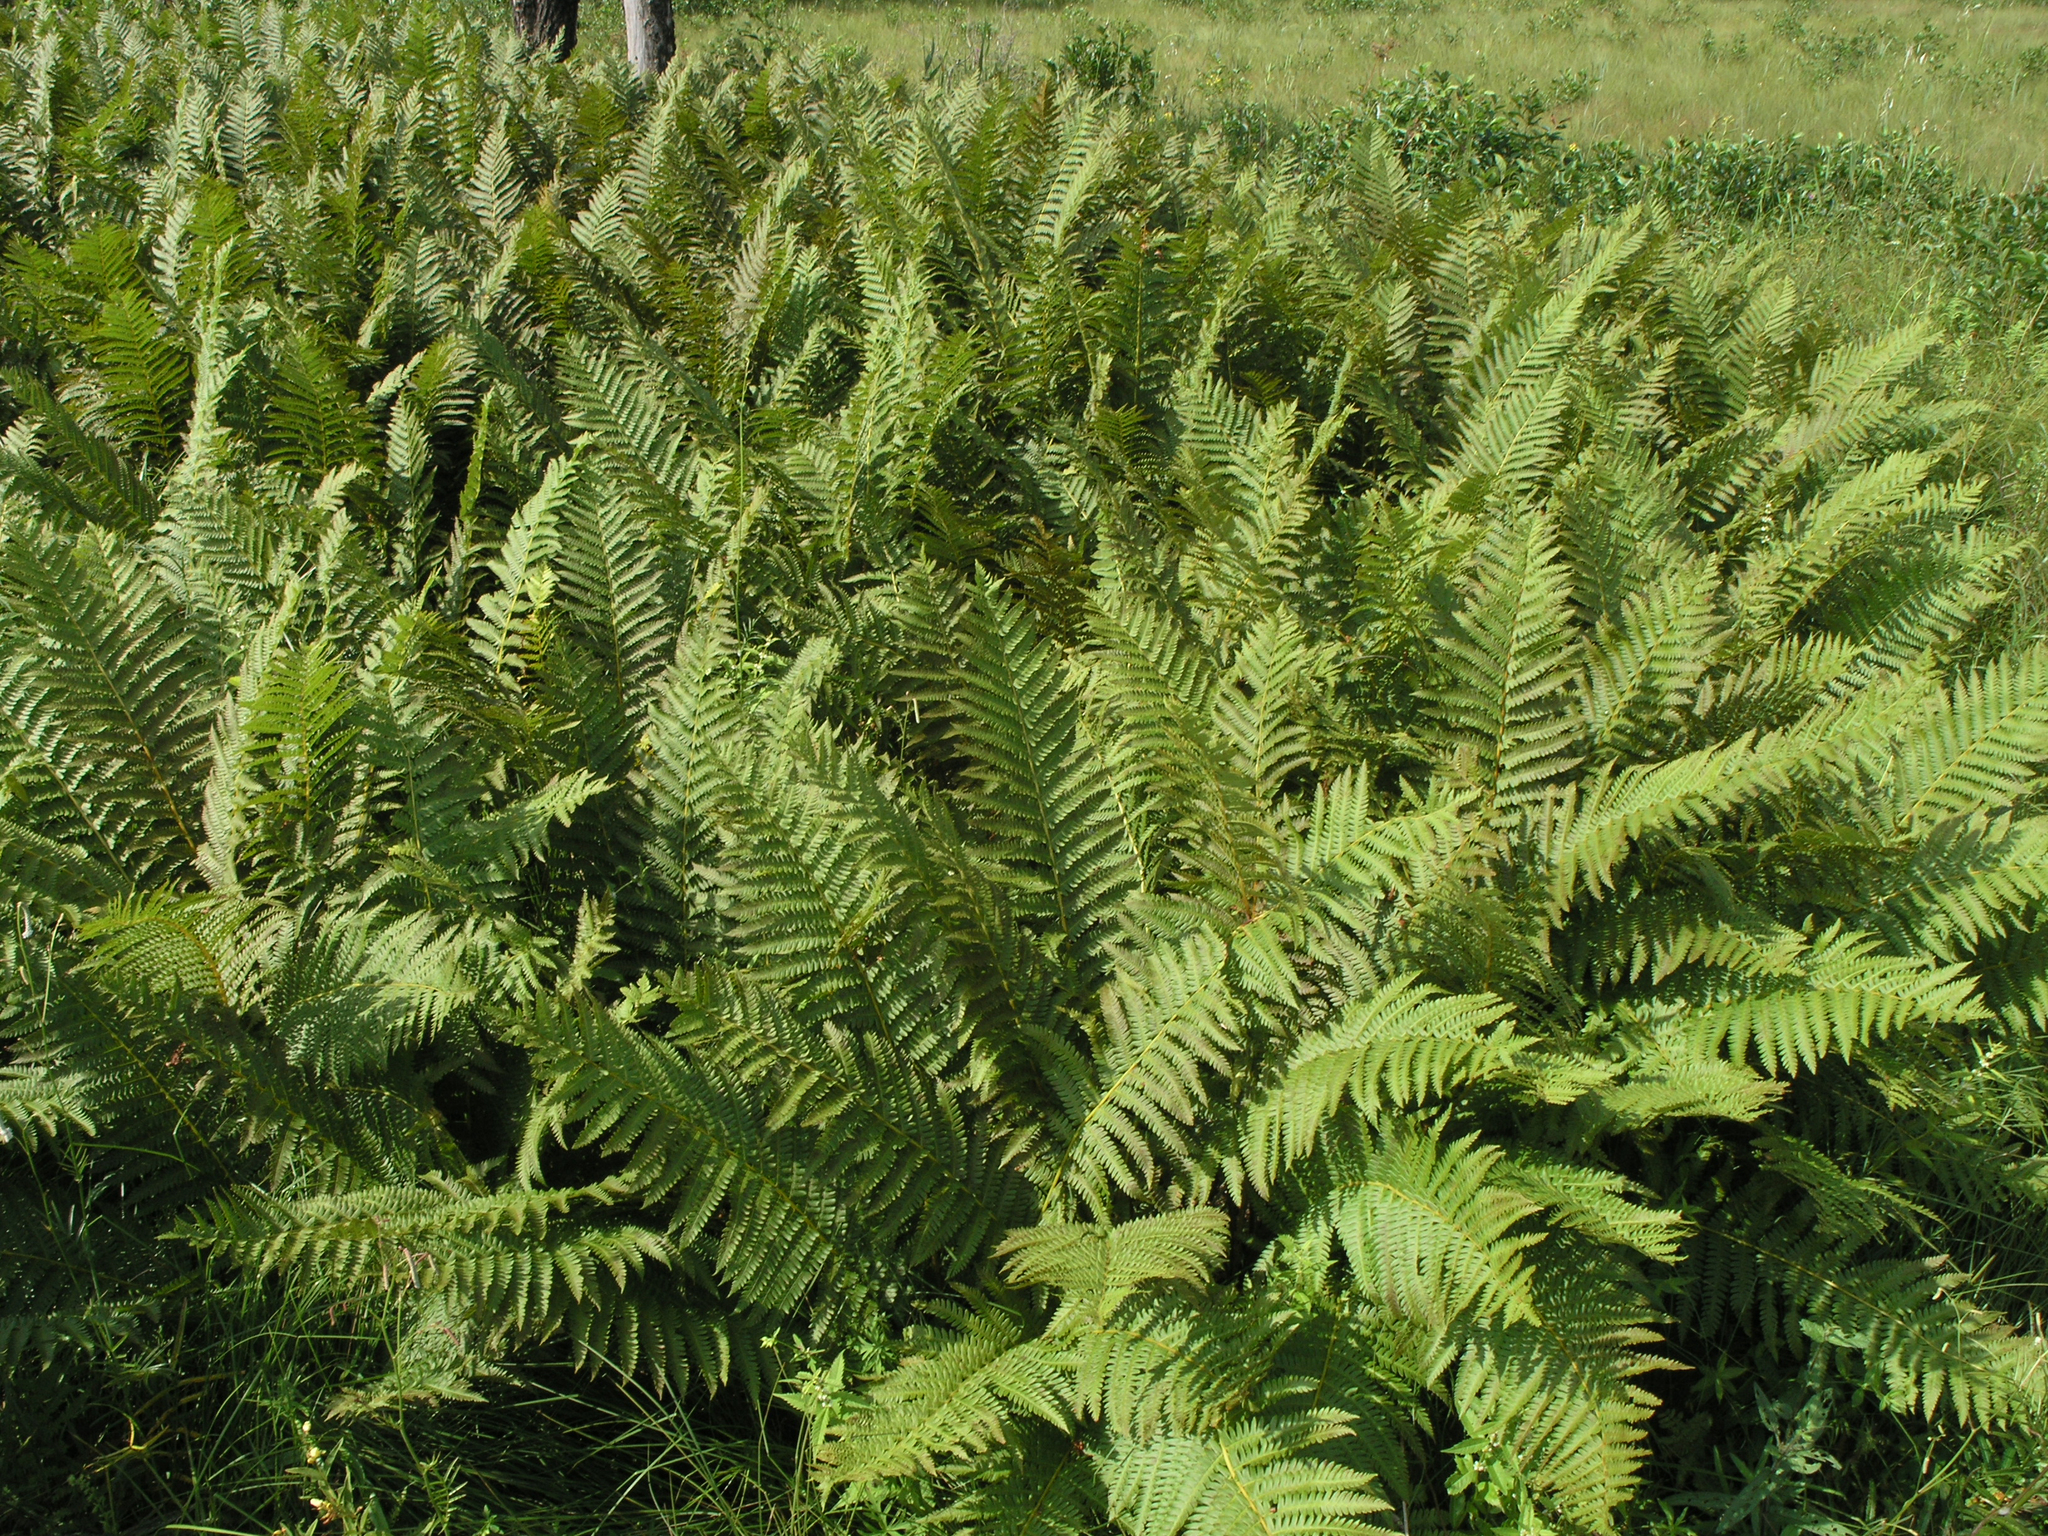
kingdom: Plantae
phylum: Tracheophyta
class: Polypodiopsida
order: Osmundales
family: Osmundaceae
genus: Osmundastrum
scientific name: Osmundastrum cinnamomeum
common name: Cinnamon fern
